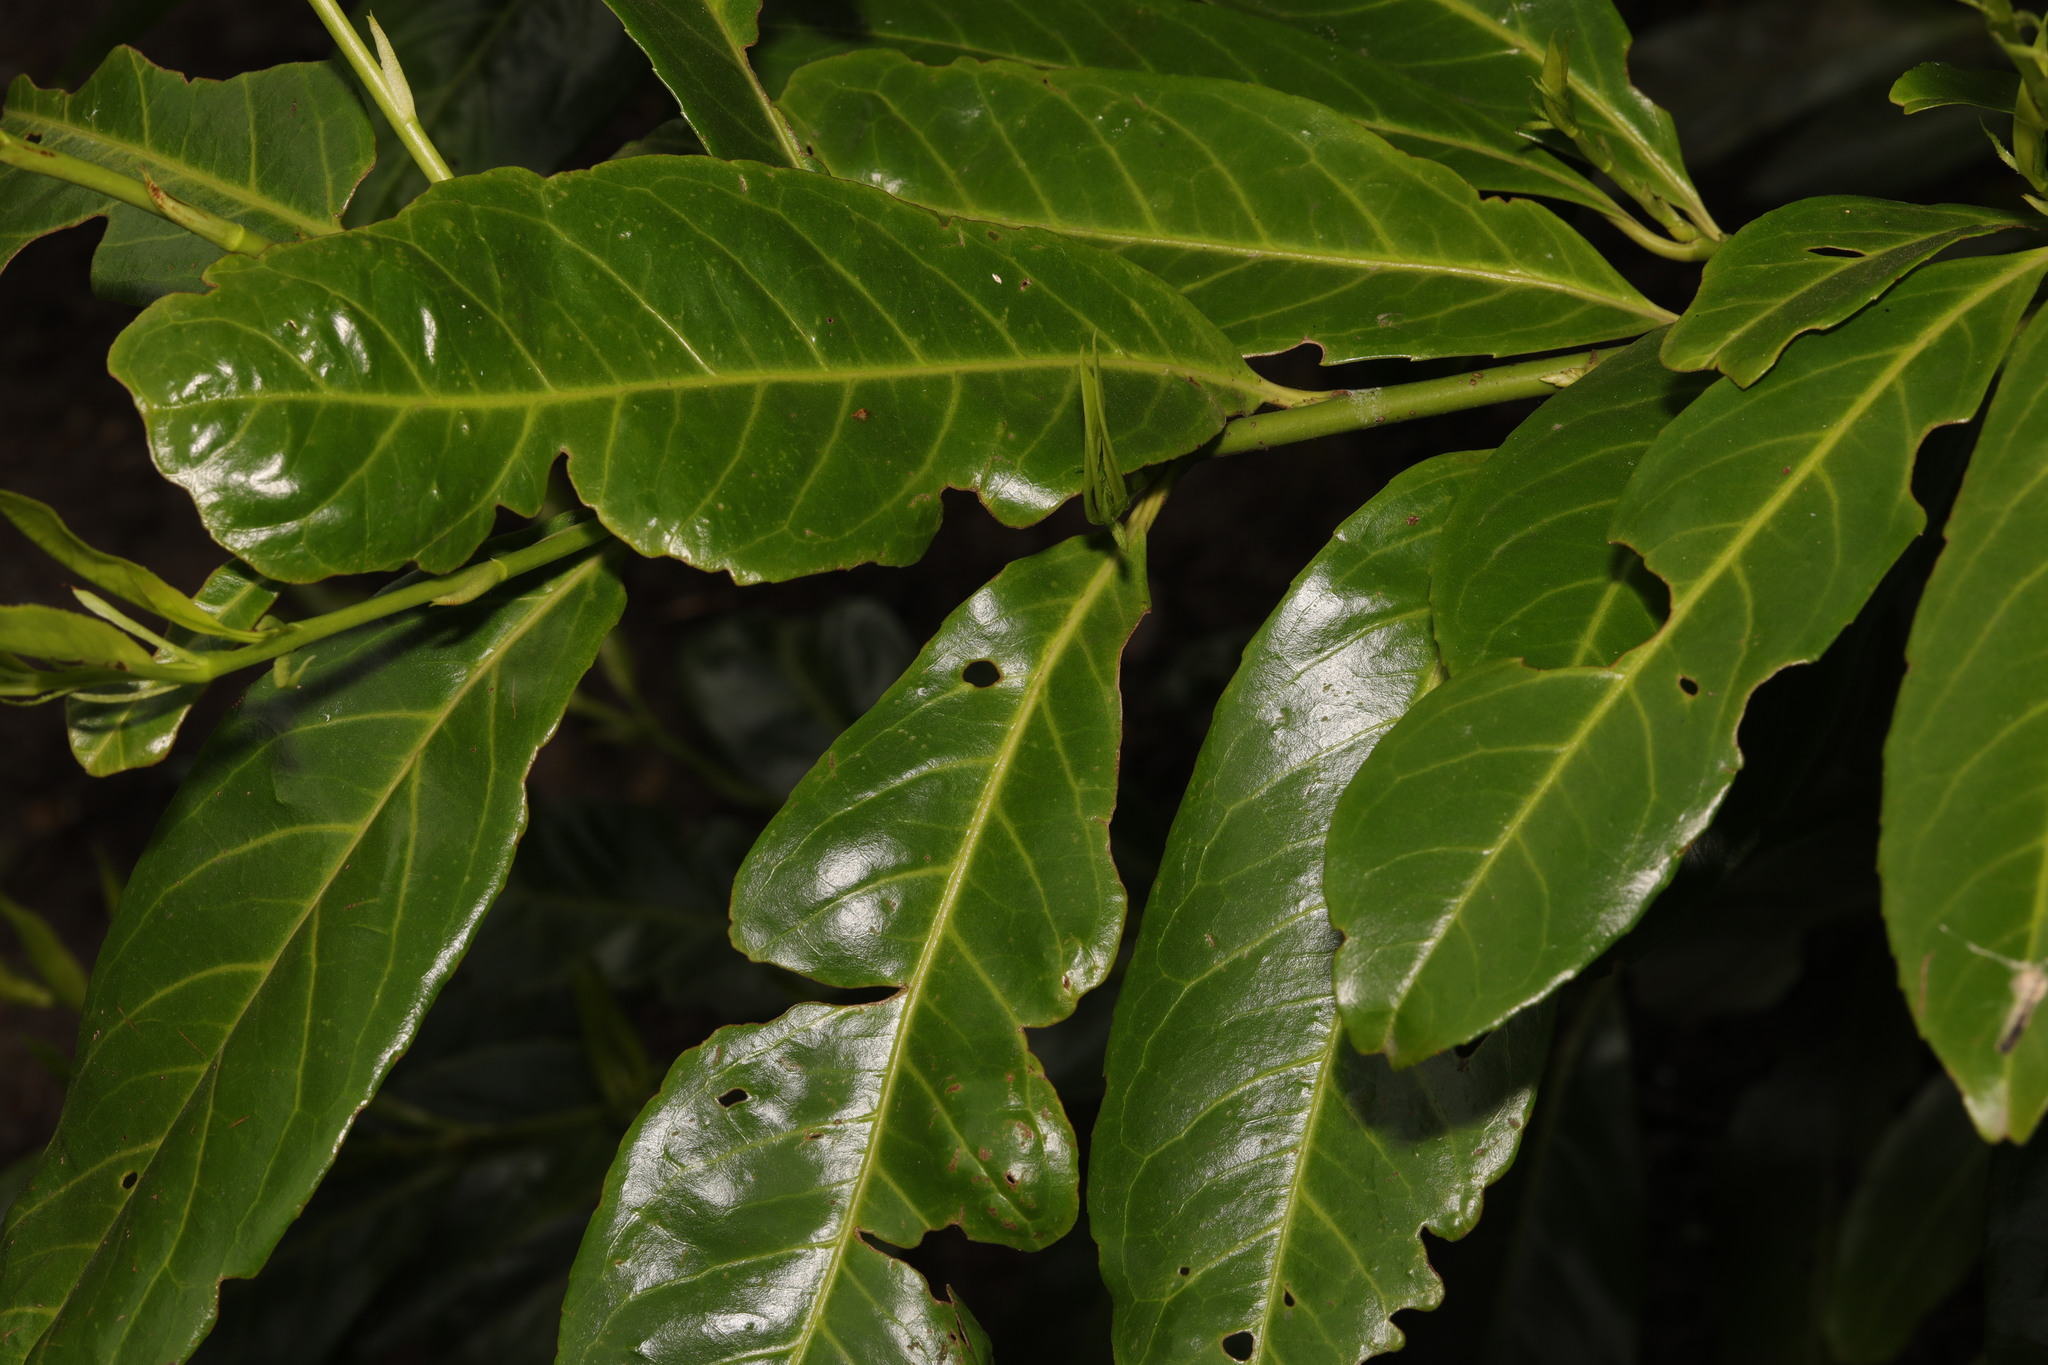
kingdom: Plantae
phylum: Tracheophyta
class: Magnoliopsida
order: Rosales
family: Rosaceae
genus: Prunus
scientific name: Prunus laurocerasus
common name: Cherry laurel
